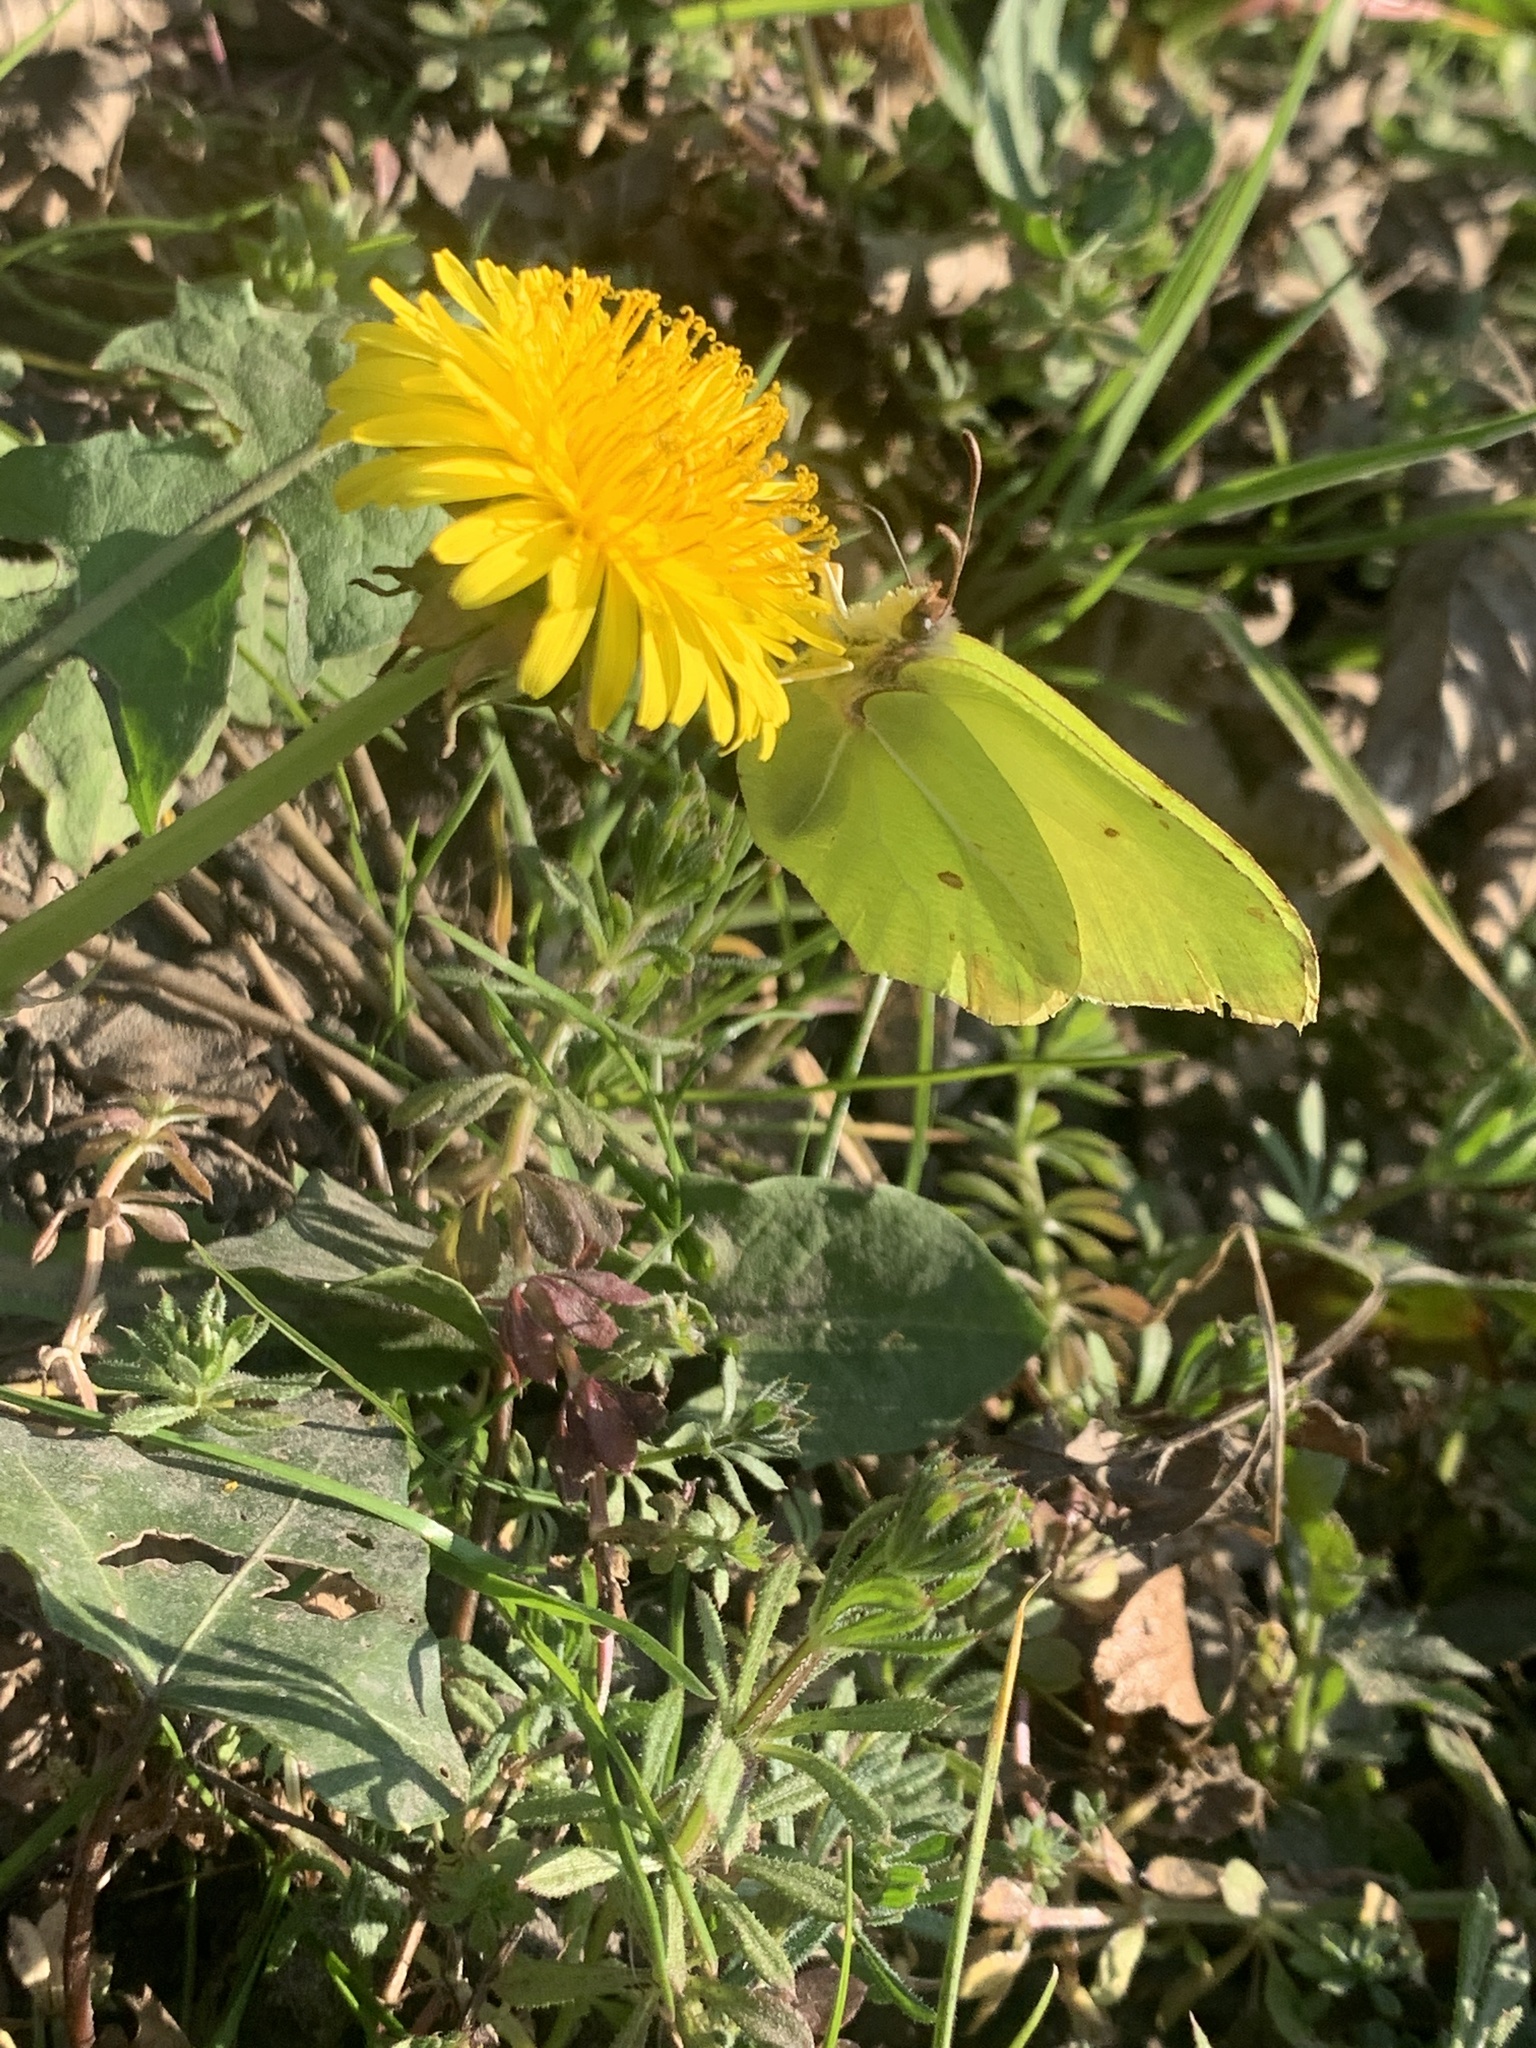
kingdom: Animalia
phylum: Arthropoda
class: Insecta
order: Lepidoptera
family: Pieridae
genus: Gonepteryx
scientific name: Gonepteryx rhamni
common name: Brimstone
